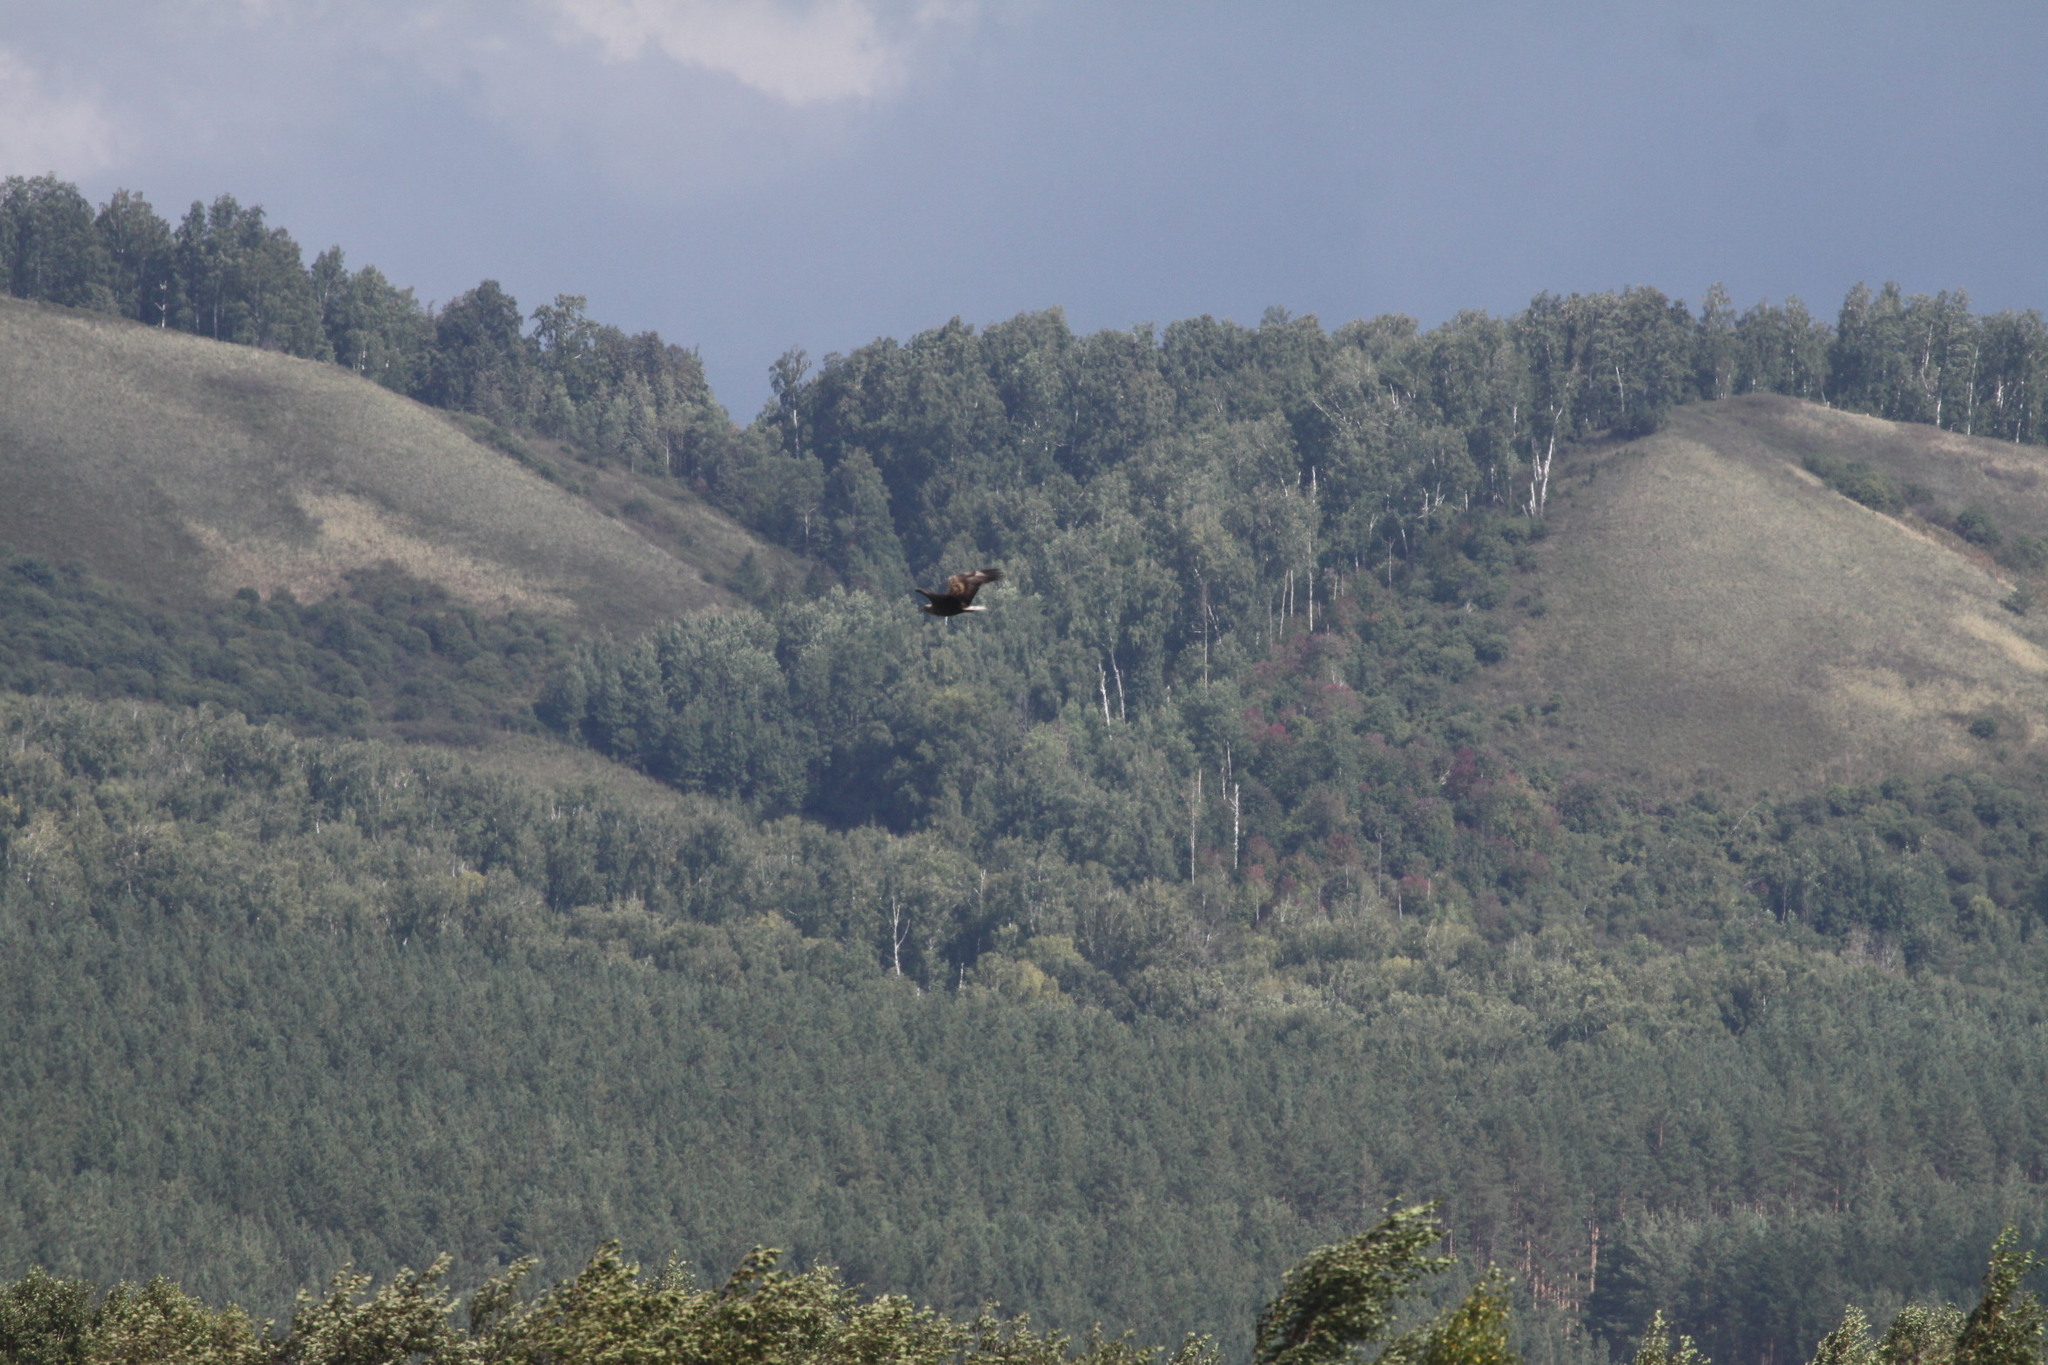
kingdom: Animalia
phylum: Chordata
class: Aves
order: Accipitriformes
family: Accipitridae
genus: Haliaeetus
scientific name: Haliaeetus albicilla
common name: White-tailed eagle
